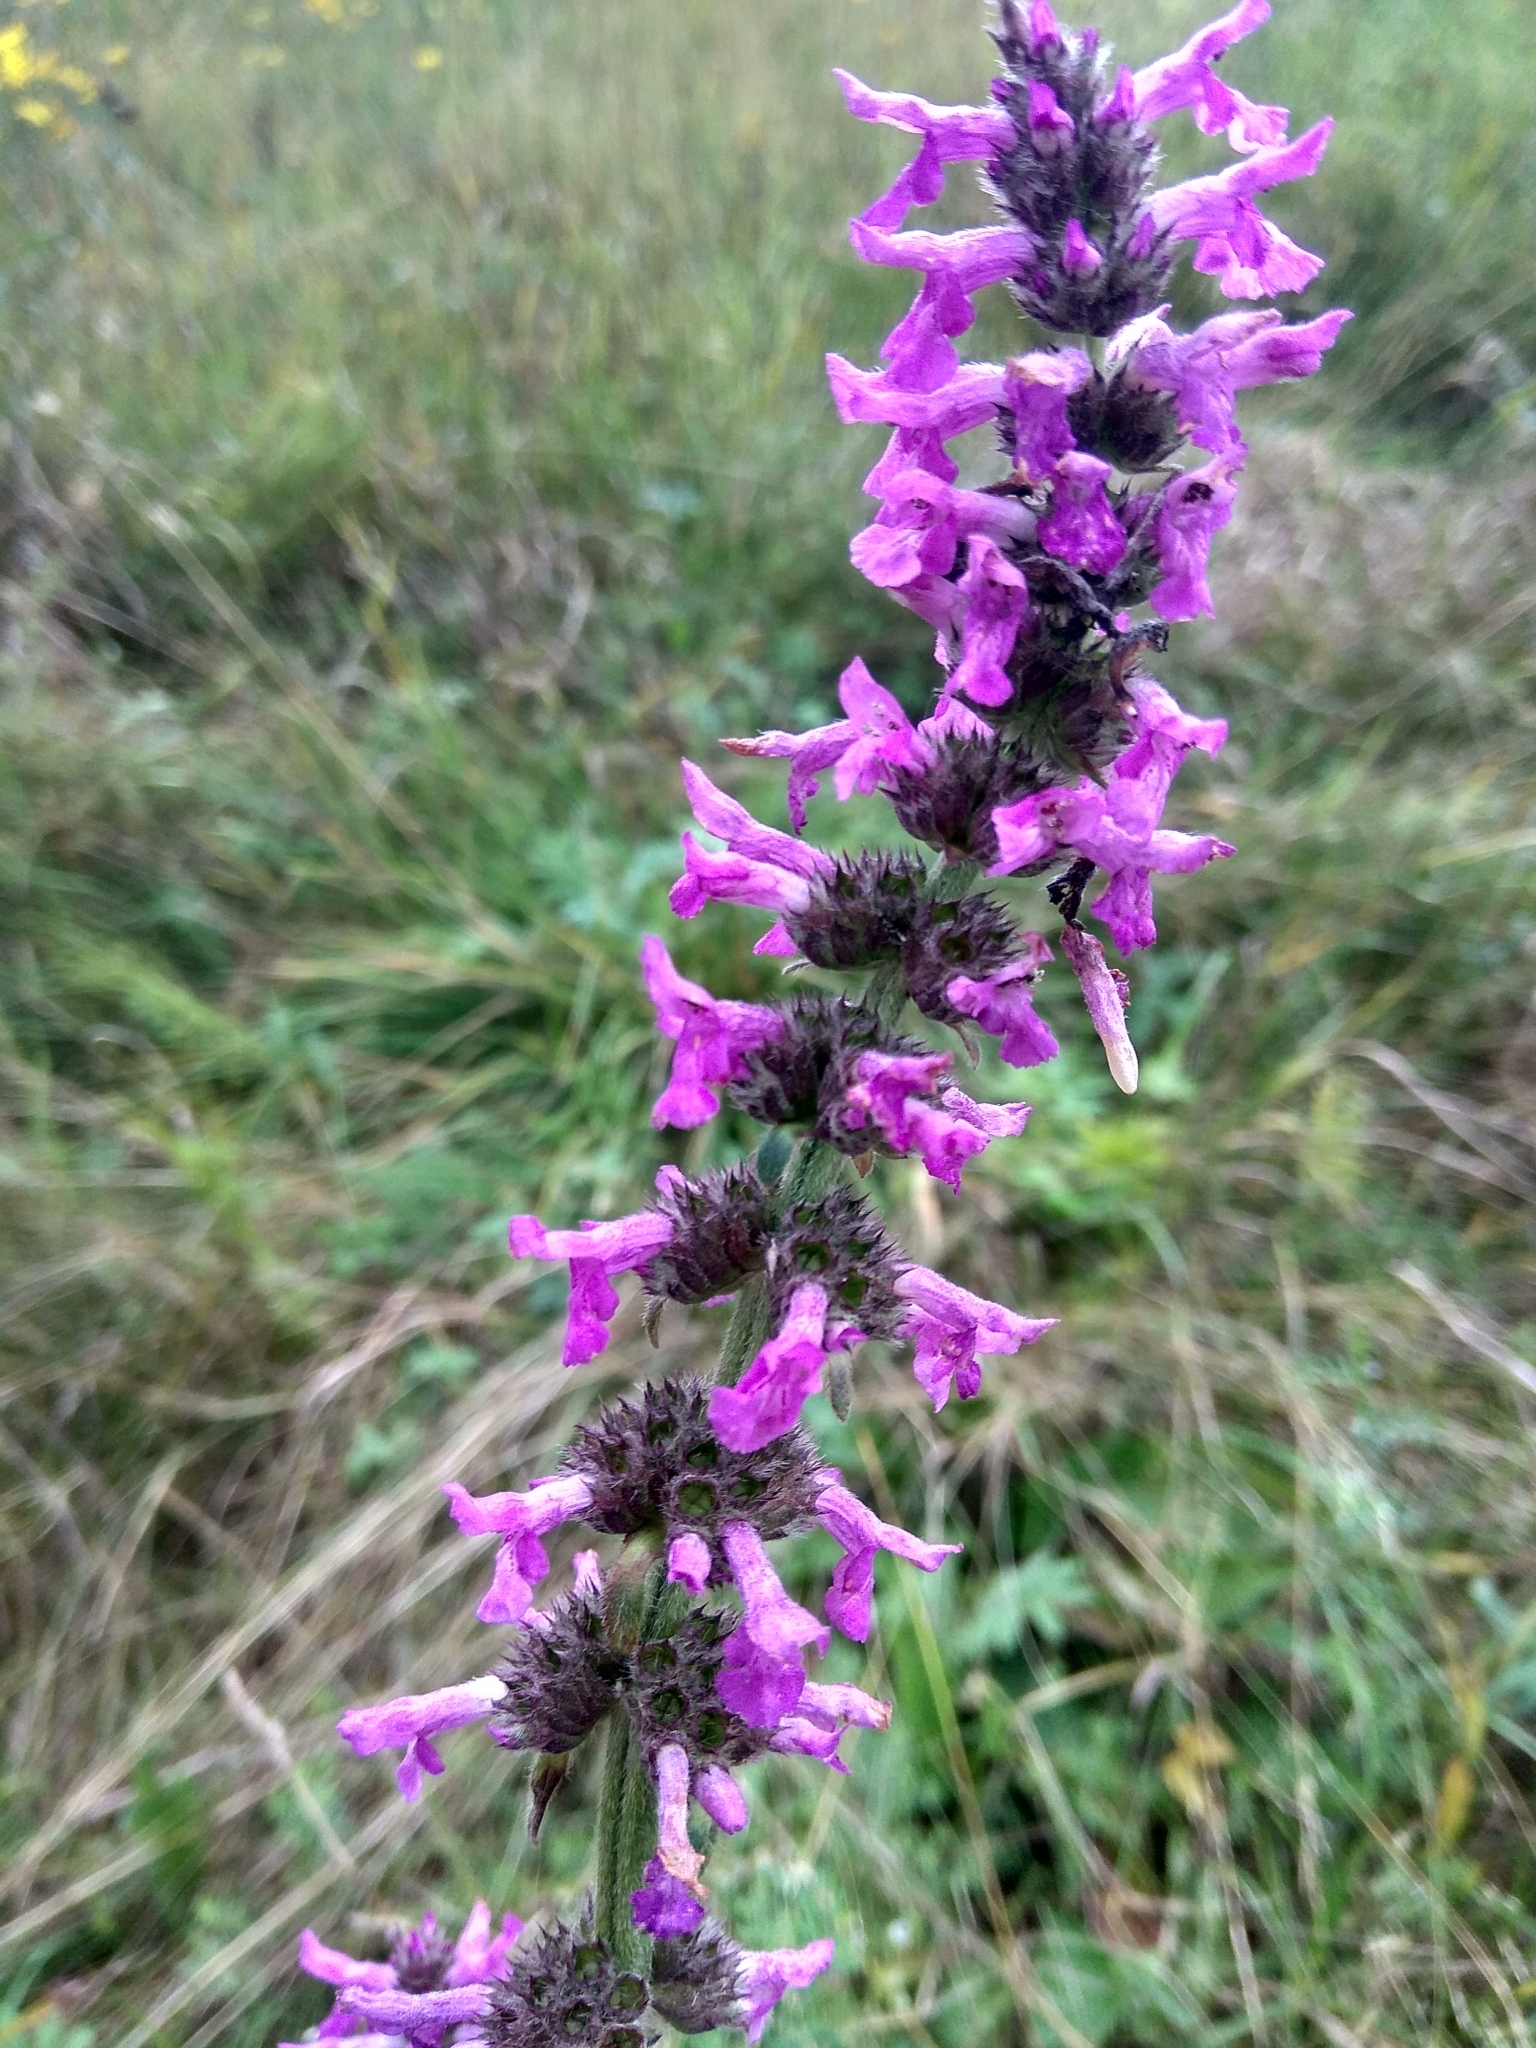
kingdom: Plantae
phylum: Tracheophyta
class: Magnoliopsida
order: Lamiales
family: Lamiaceae
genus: Betonica
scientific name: Betonica officinalis
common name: Bishop's-wort
